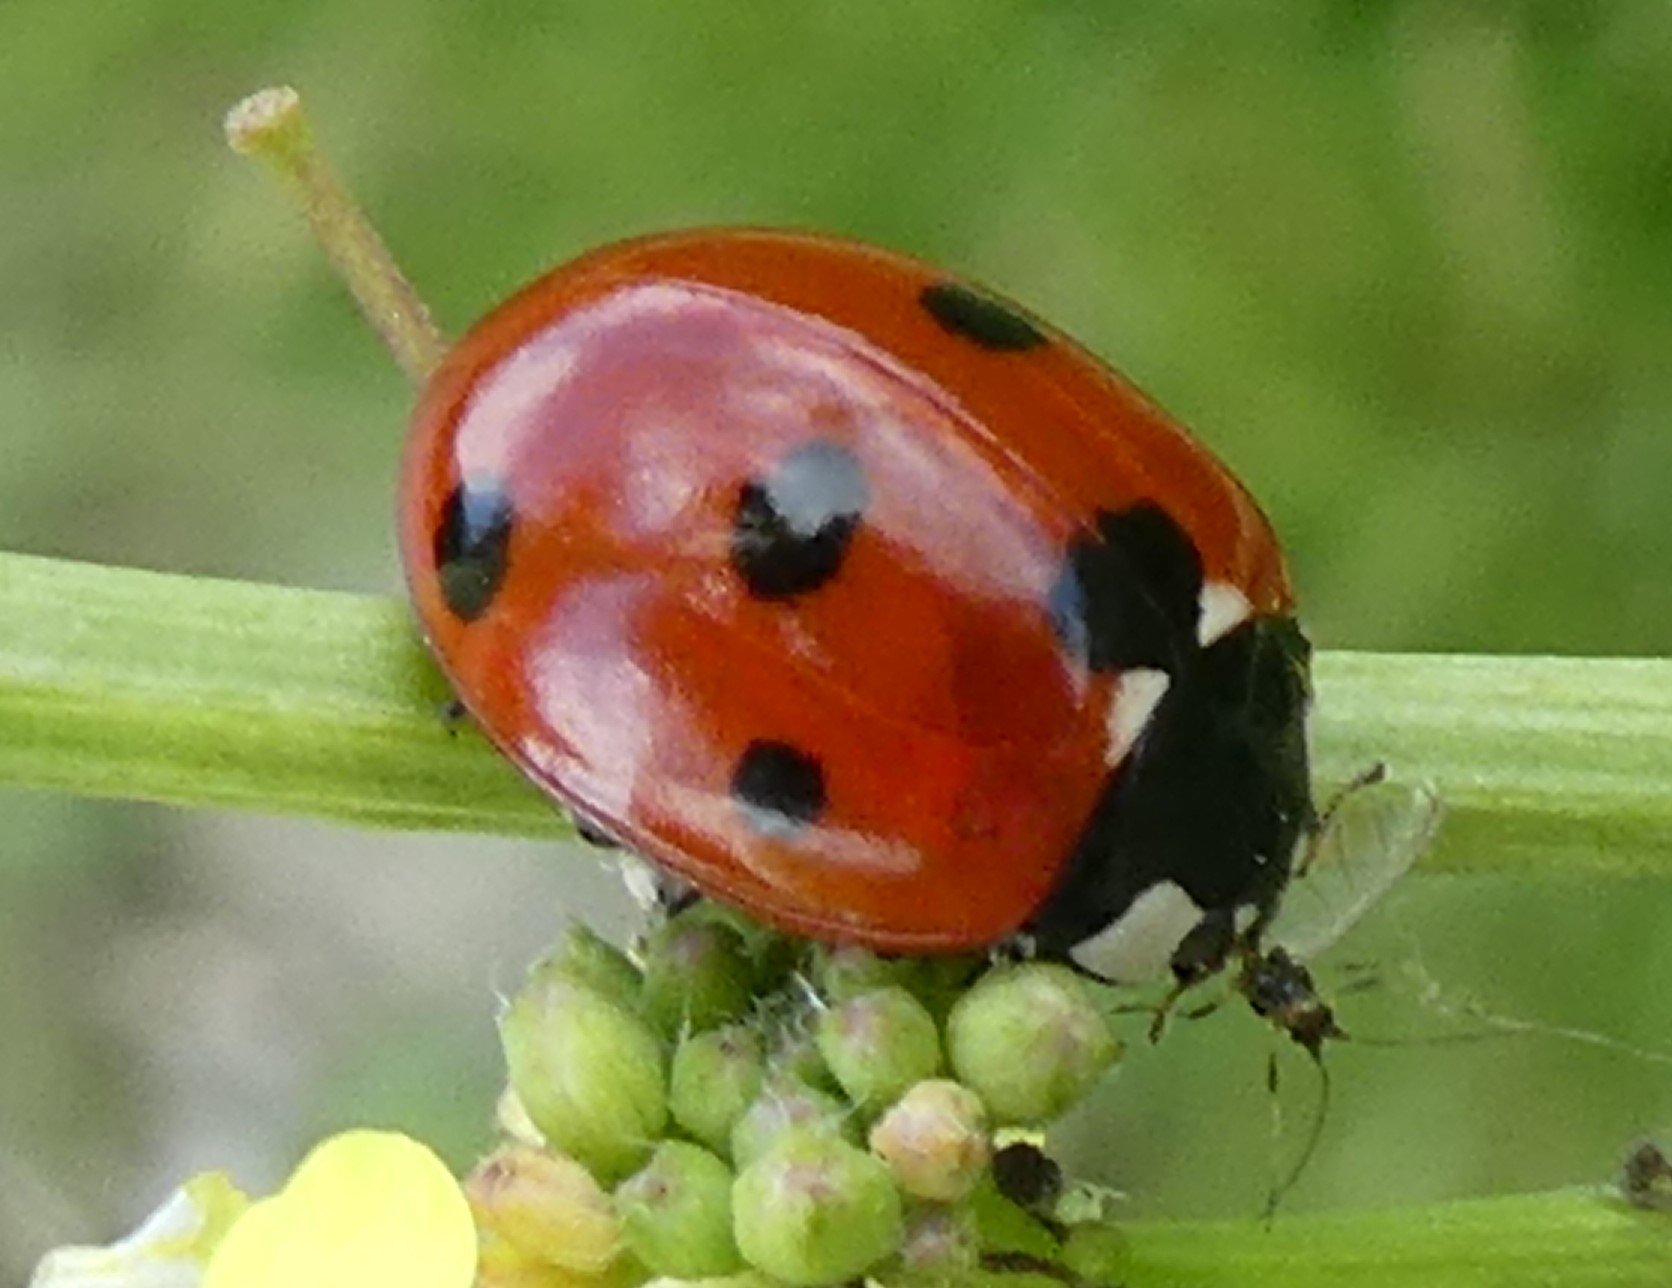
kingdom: Animalia
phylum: Arthropoda
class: Insecta
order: Coleoptera
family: Coccinellidae
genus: Coccinella
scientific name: Coccinella septempunctata
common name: Sevenspotted lady beetle
